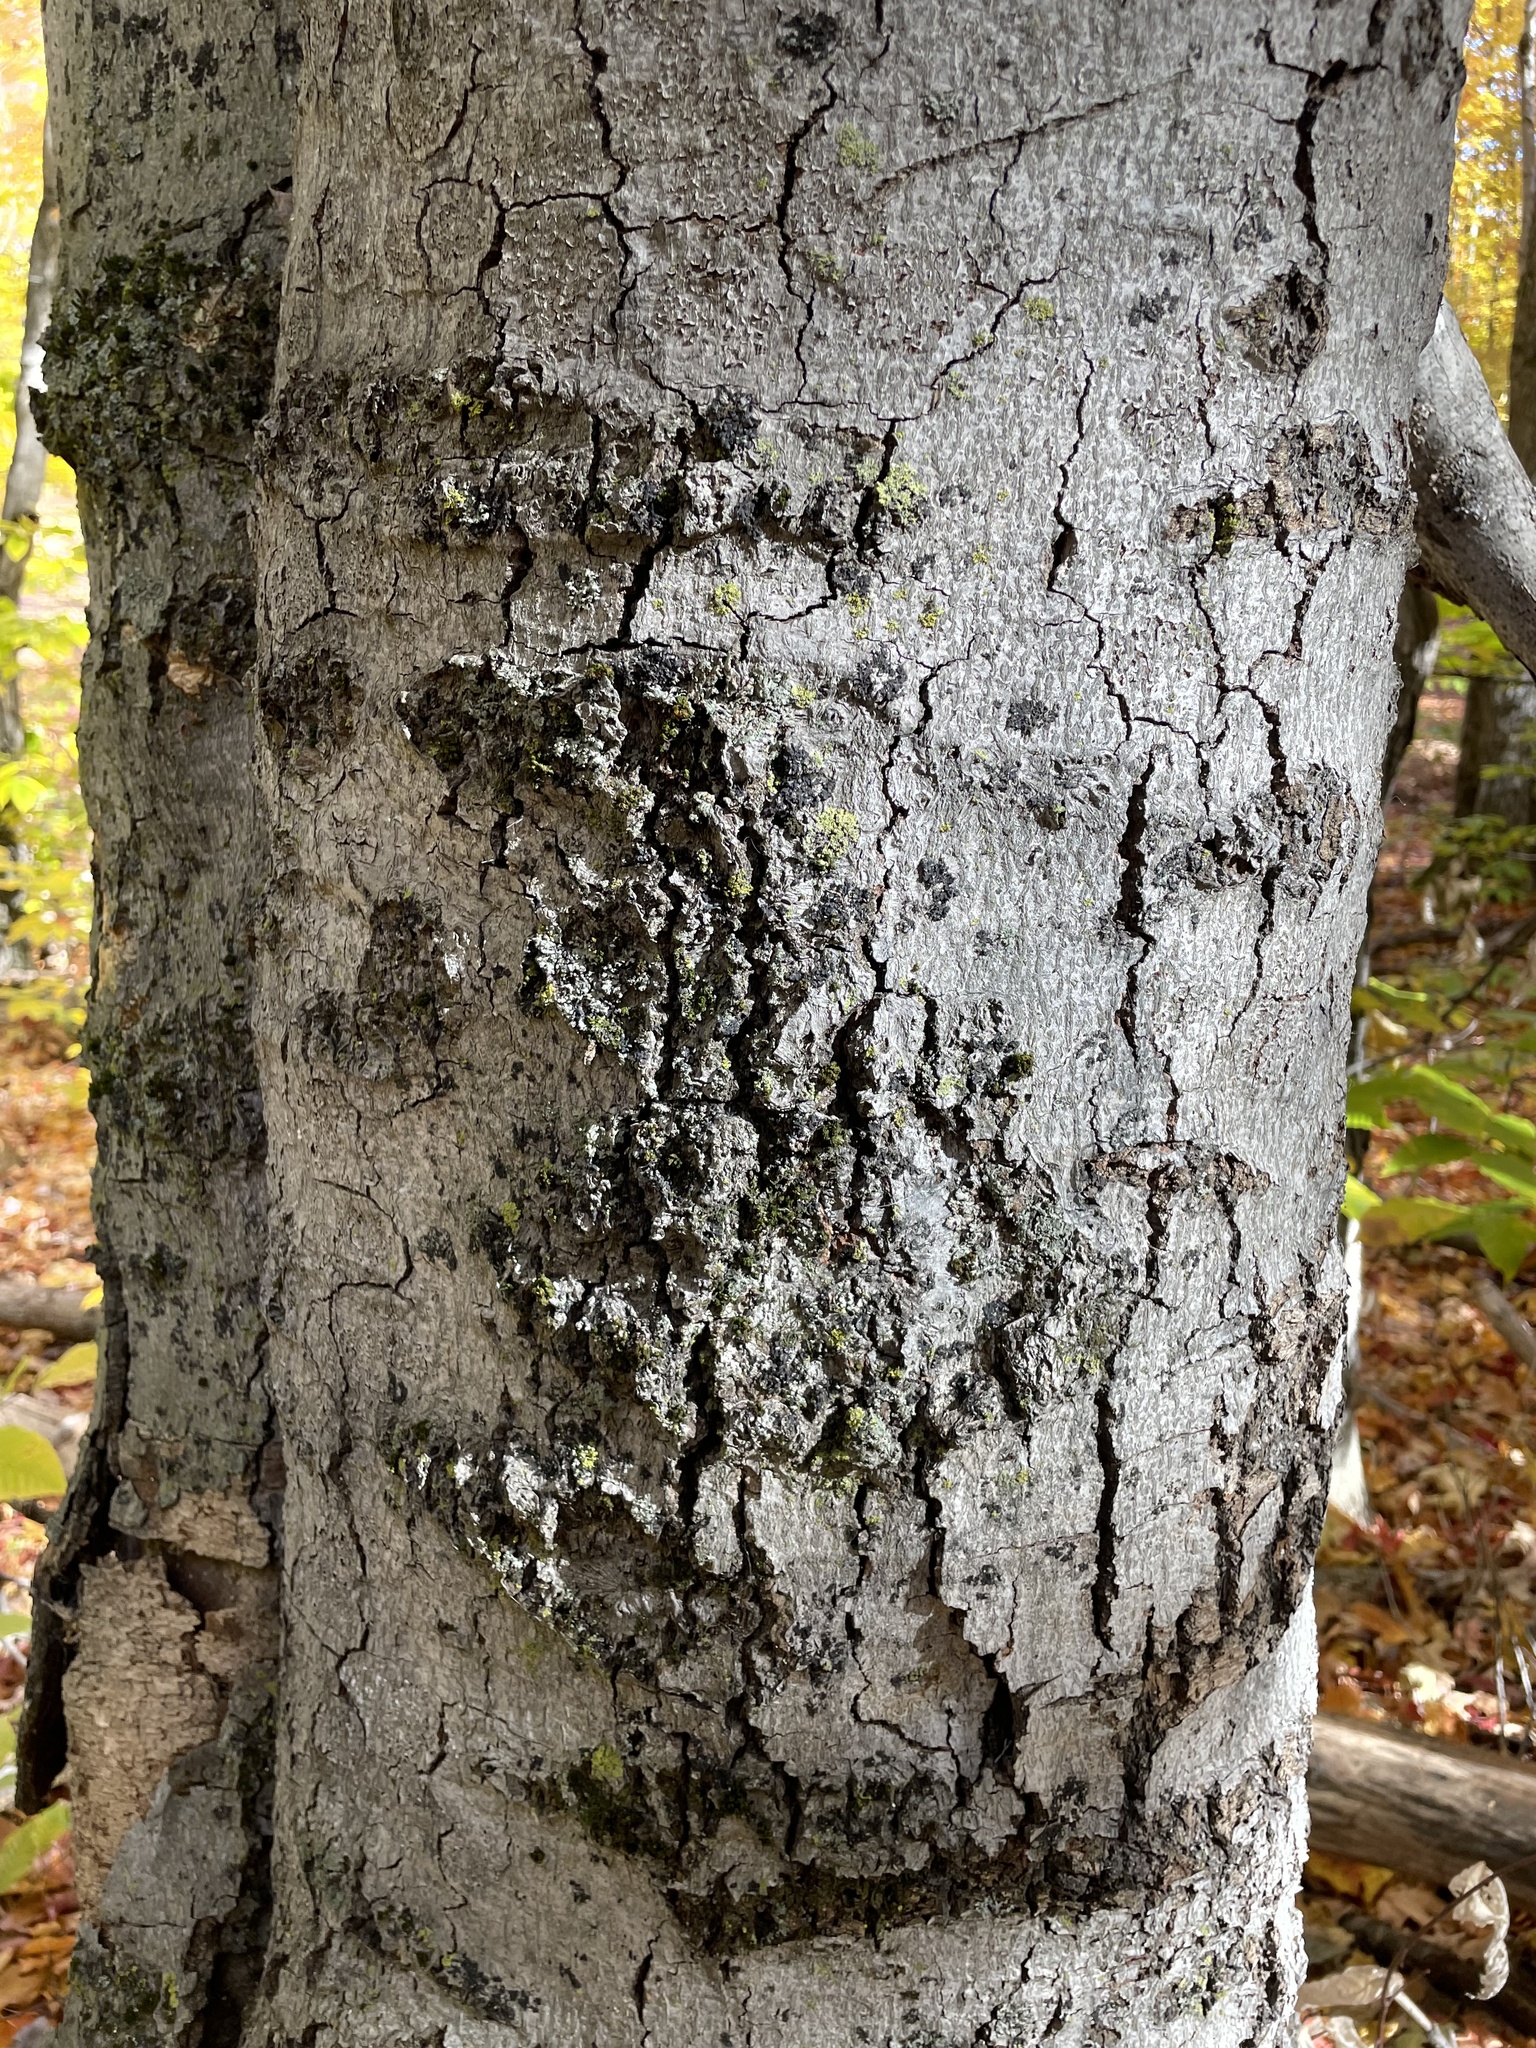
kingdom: Plantae
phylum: Tracheophyta
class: Magnoliopsida
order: Fagales
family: Fagaceae
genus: Fagus
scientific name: Fagus grandifolia
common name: American beech
